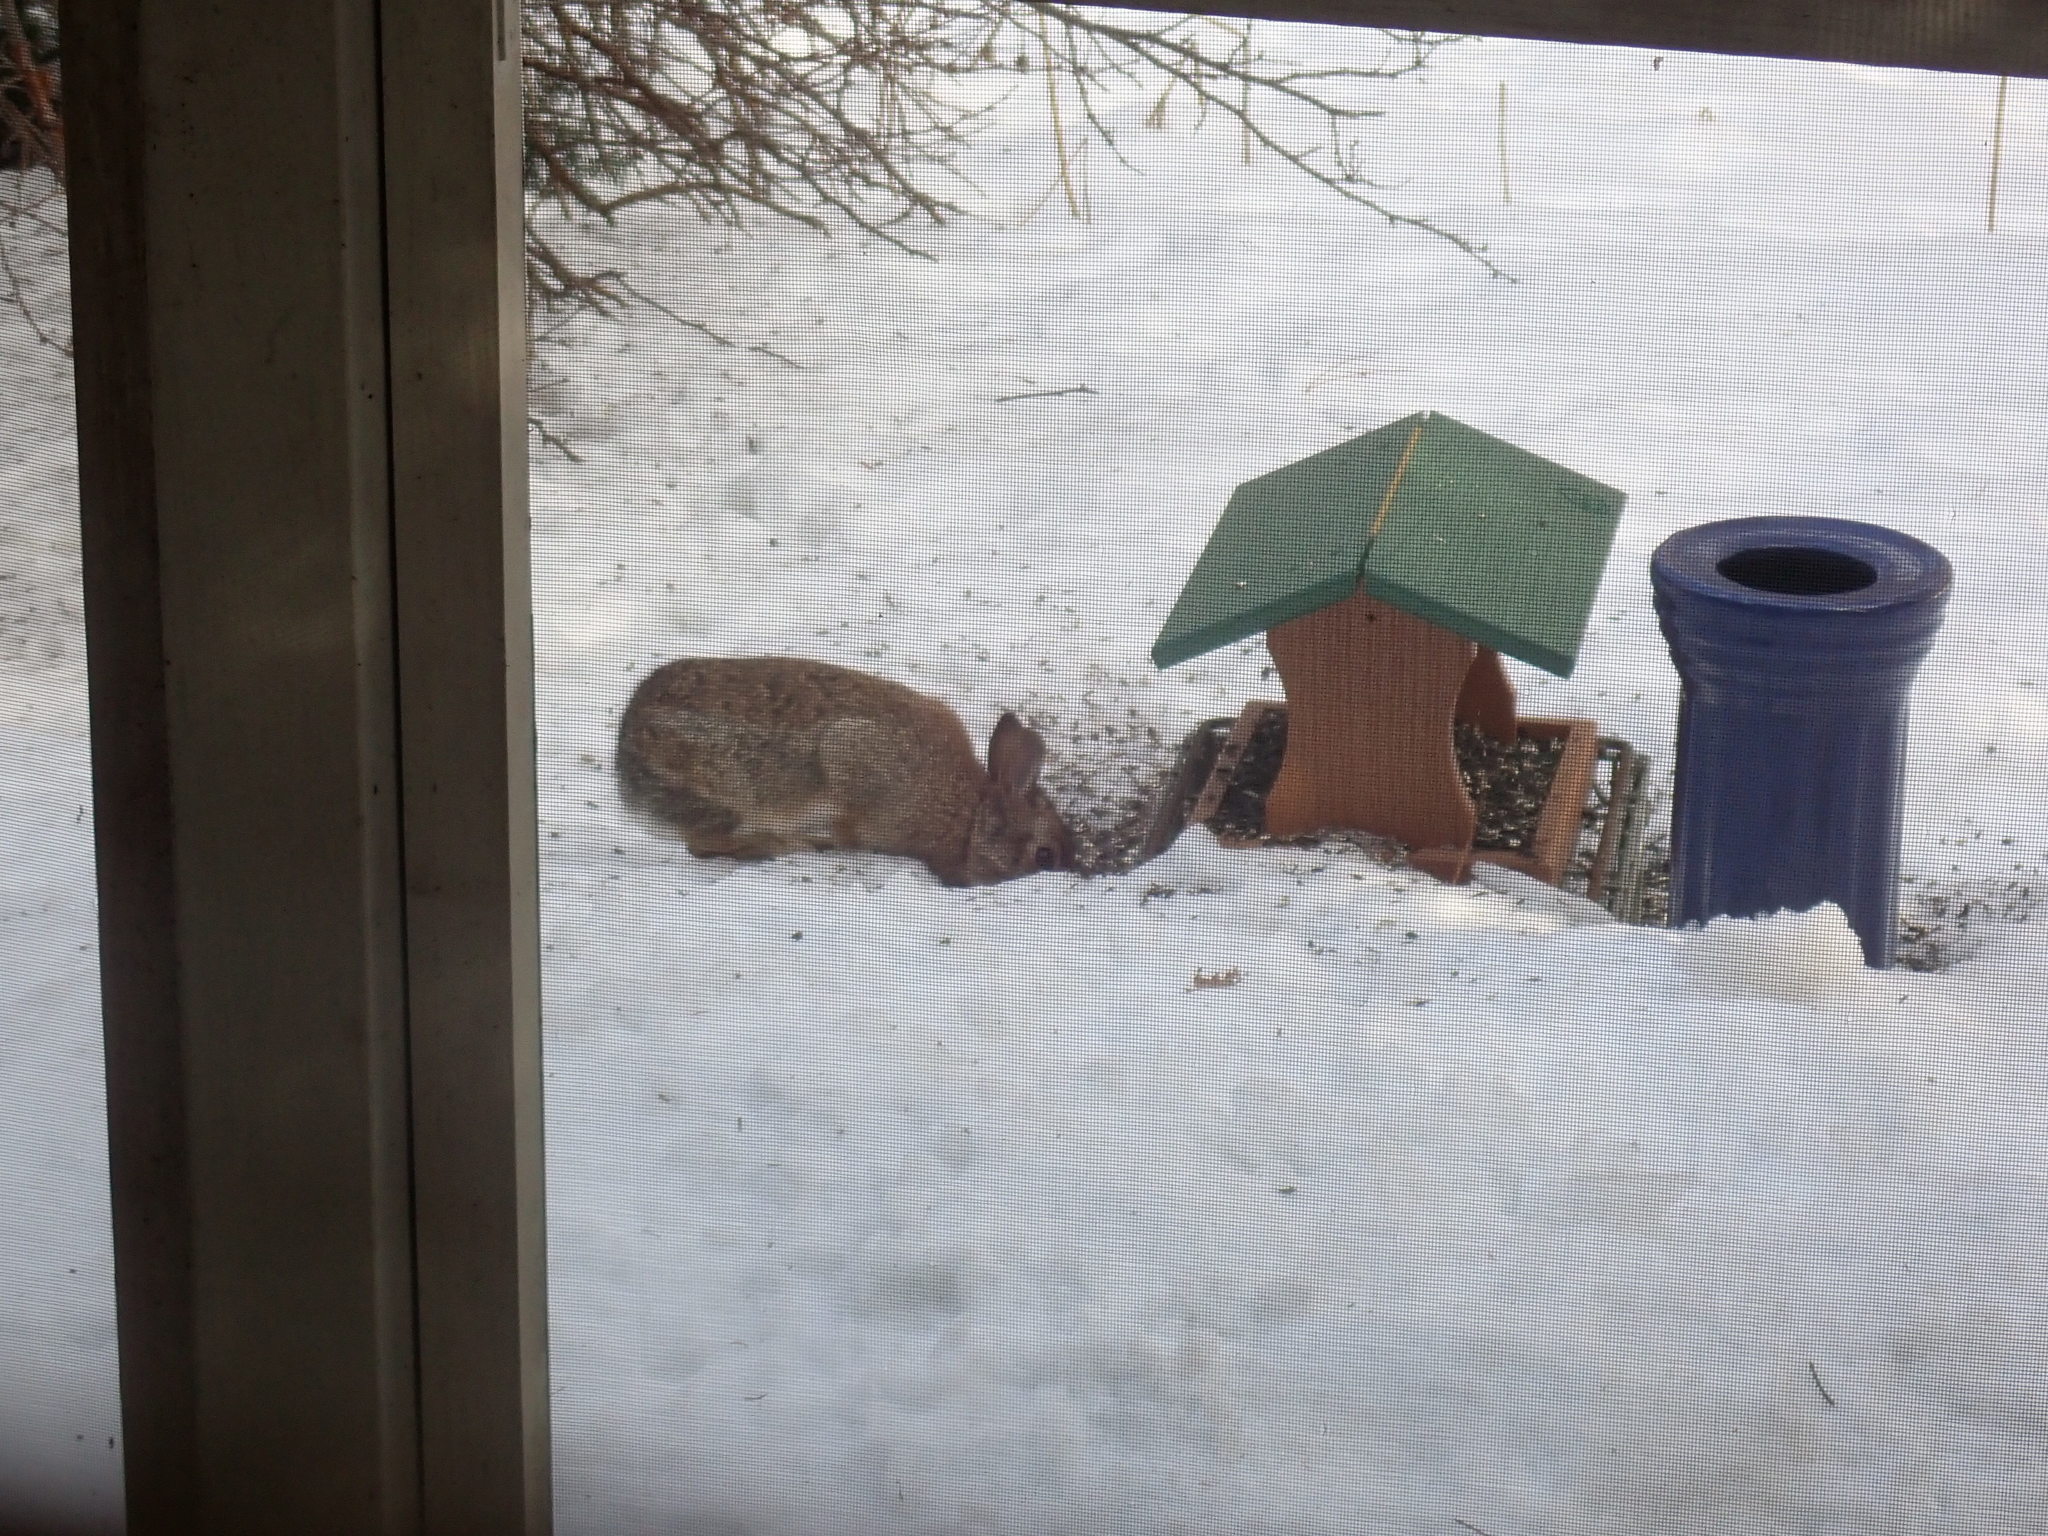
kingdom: Animalia
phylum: Chordata
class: Mammalia
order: Lagomorpha
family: Leporidae
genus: Sylvilagus
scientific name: Sylvilagus floridanus
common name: Eastern cottontail
